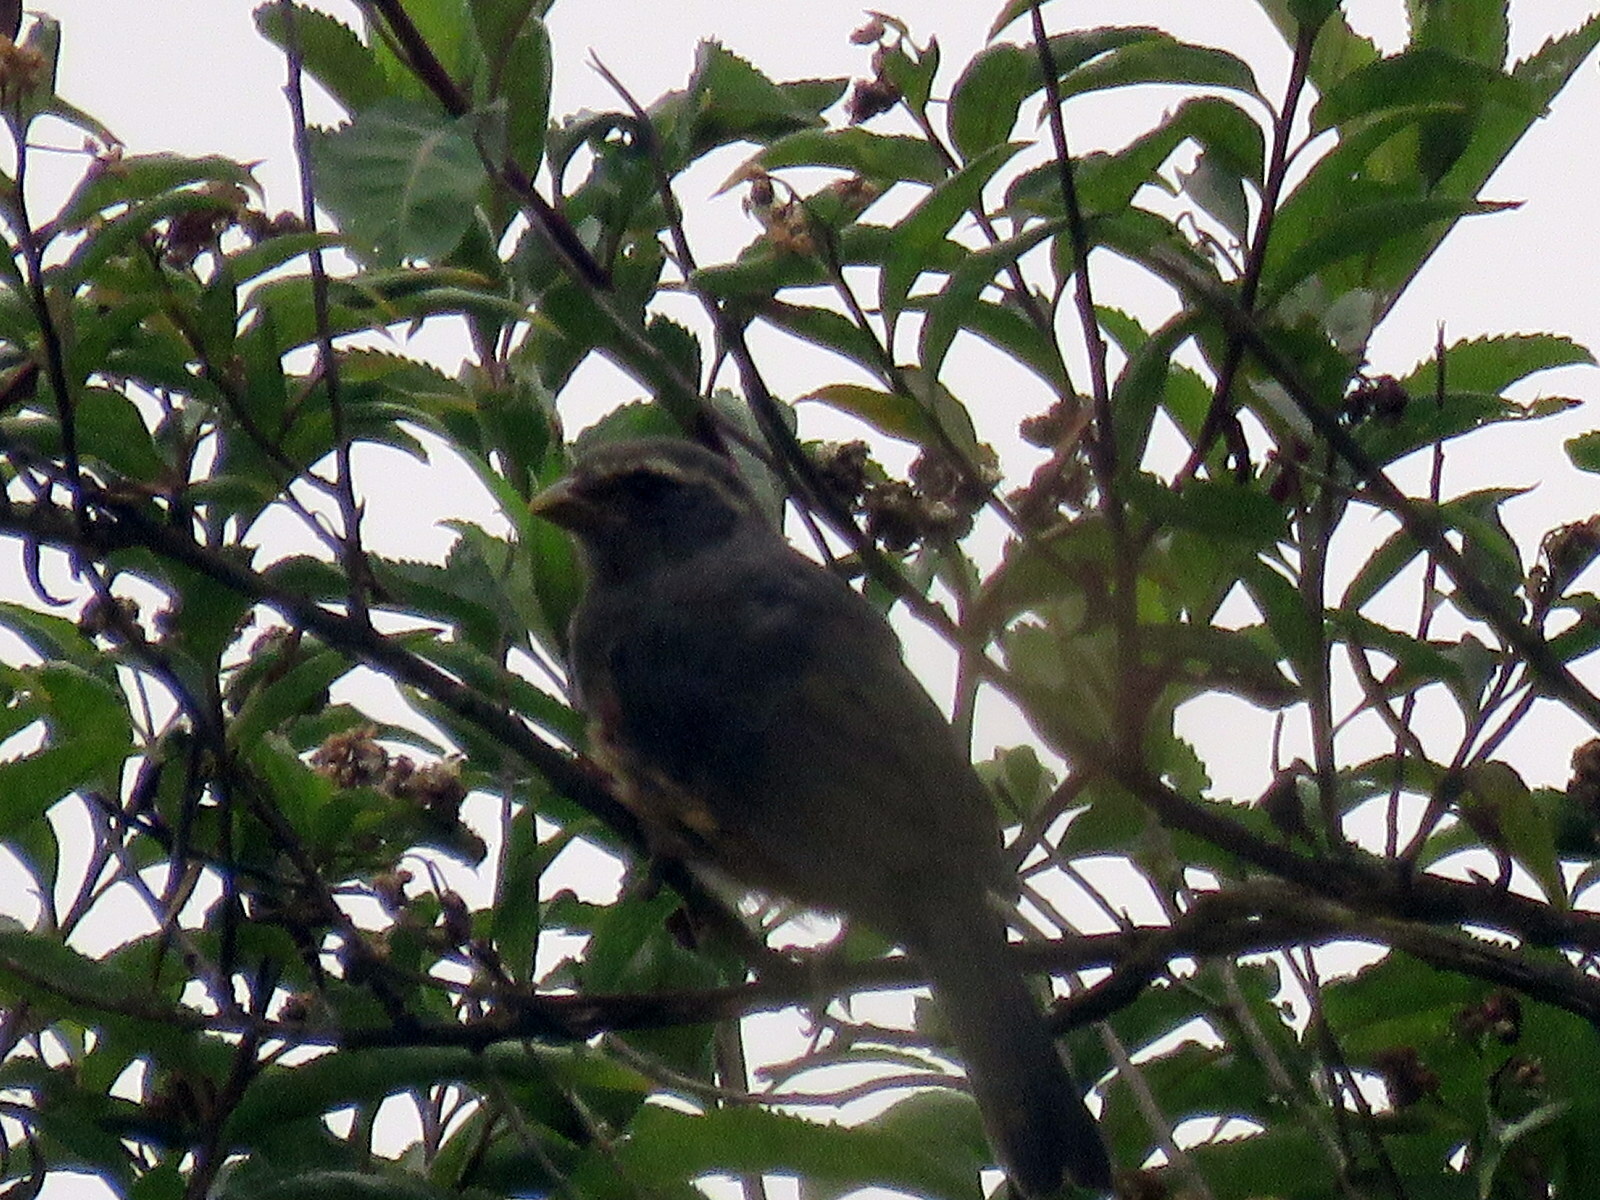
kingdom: Animalia
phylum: Chordata
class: Aves
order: Passeriformes
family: Thraupidae
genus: Pseudosaltator
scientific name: Pseudosaltator rufiventris
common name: Rufous-bellied mountain-tanager
